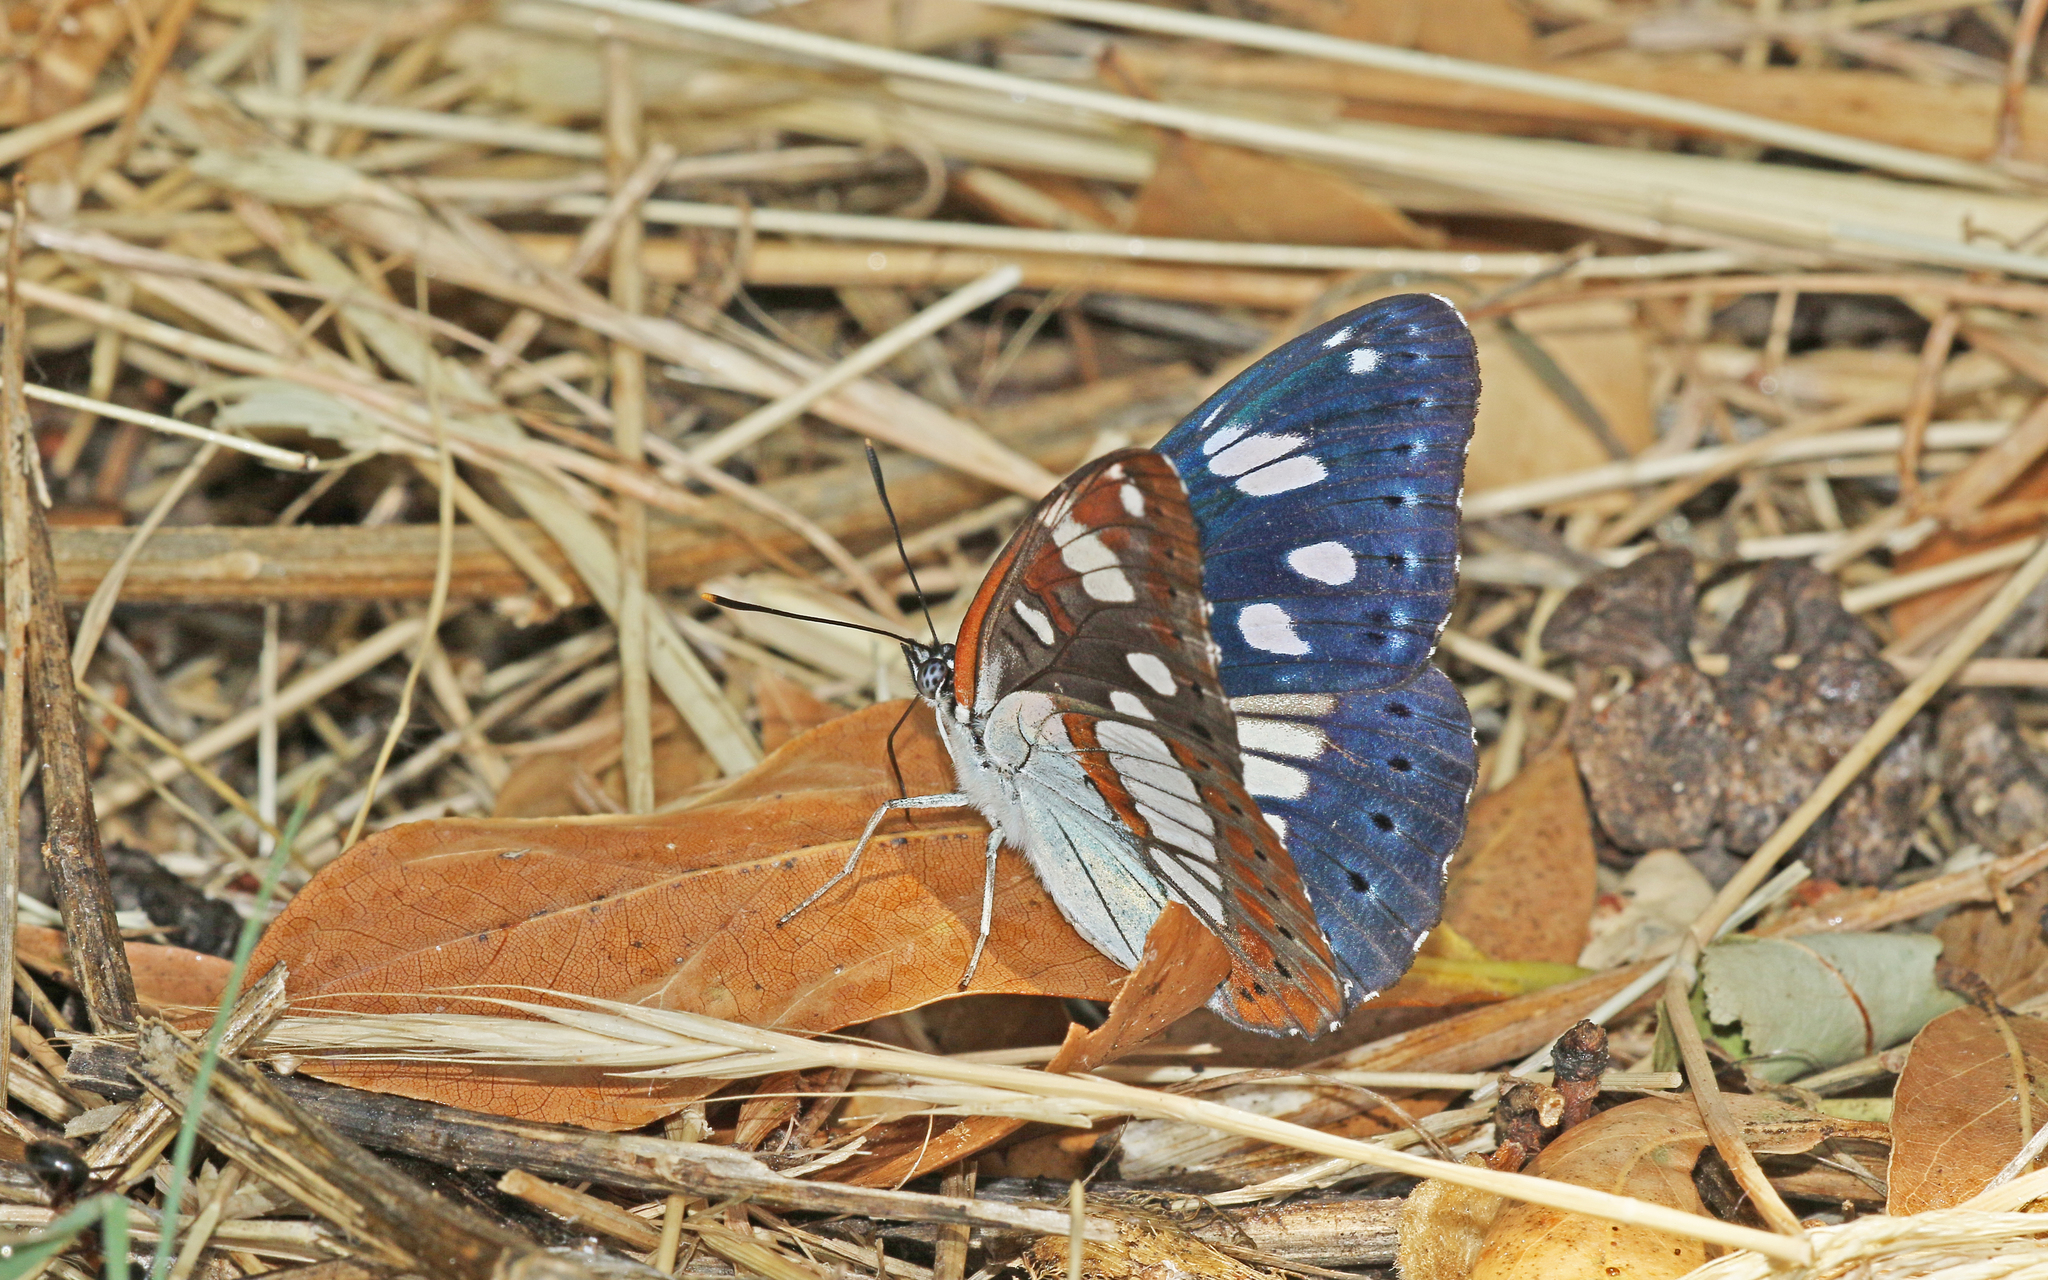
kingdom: Animalia
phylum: Arthropoda
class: Insecta
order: Lepidoptera
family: Nymphalidae
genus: Limenitis
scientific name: Limenitis reducta
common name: Southern white admiral
